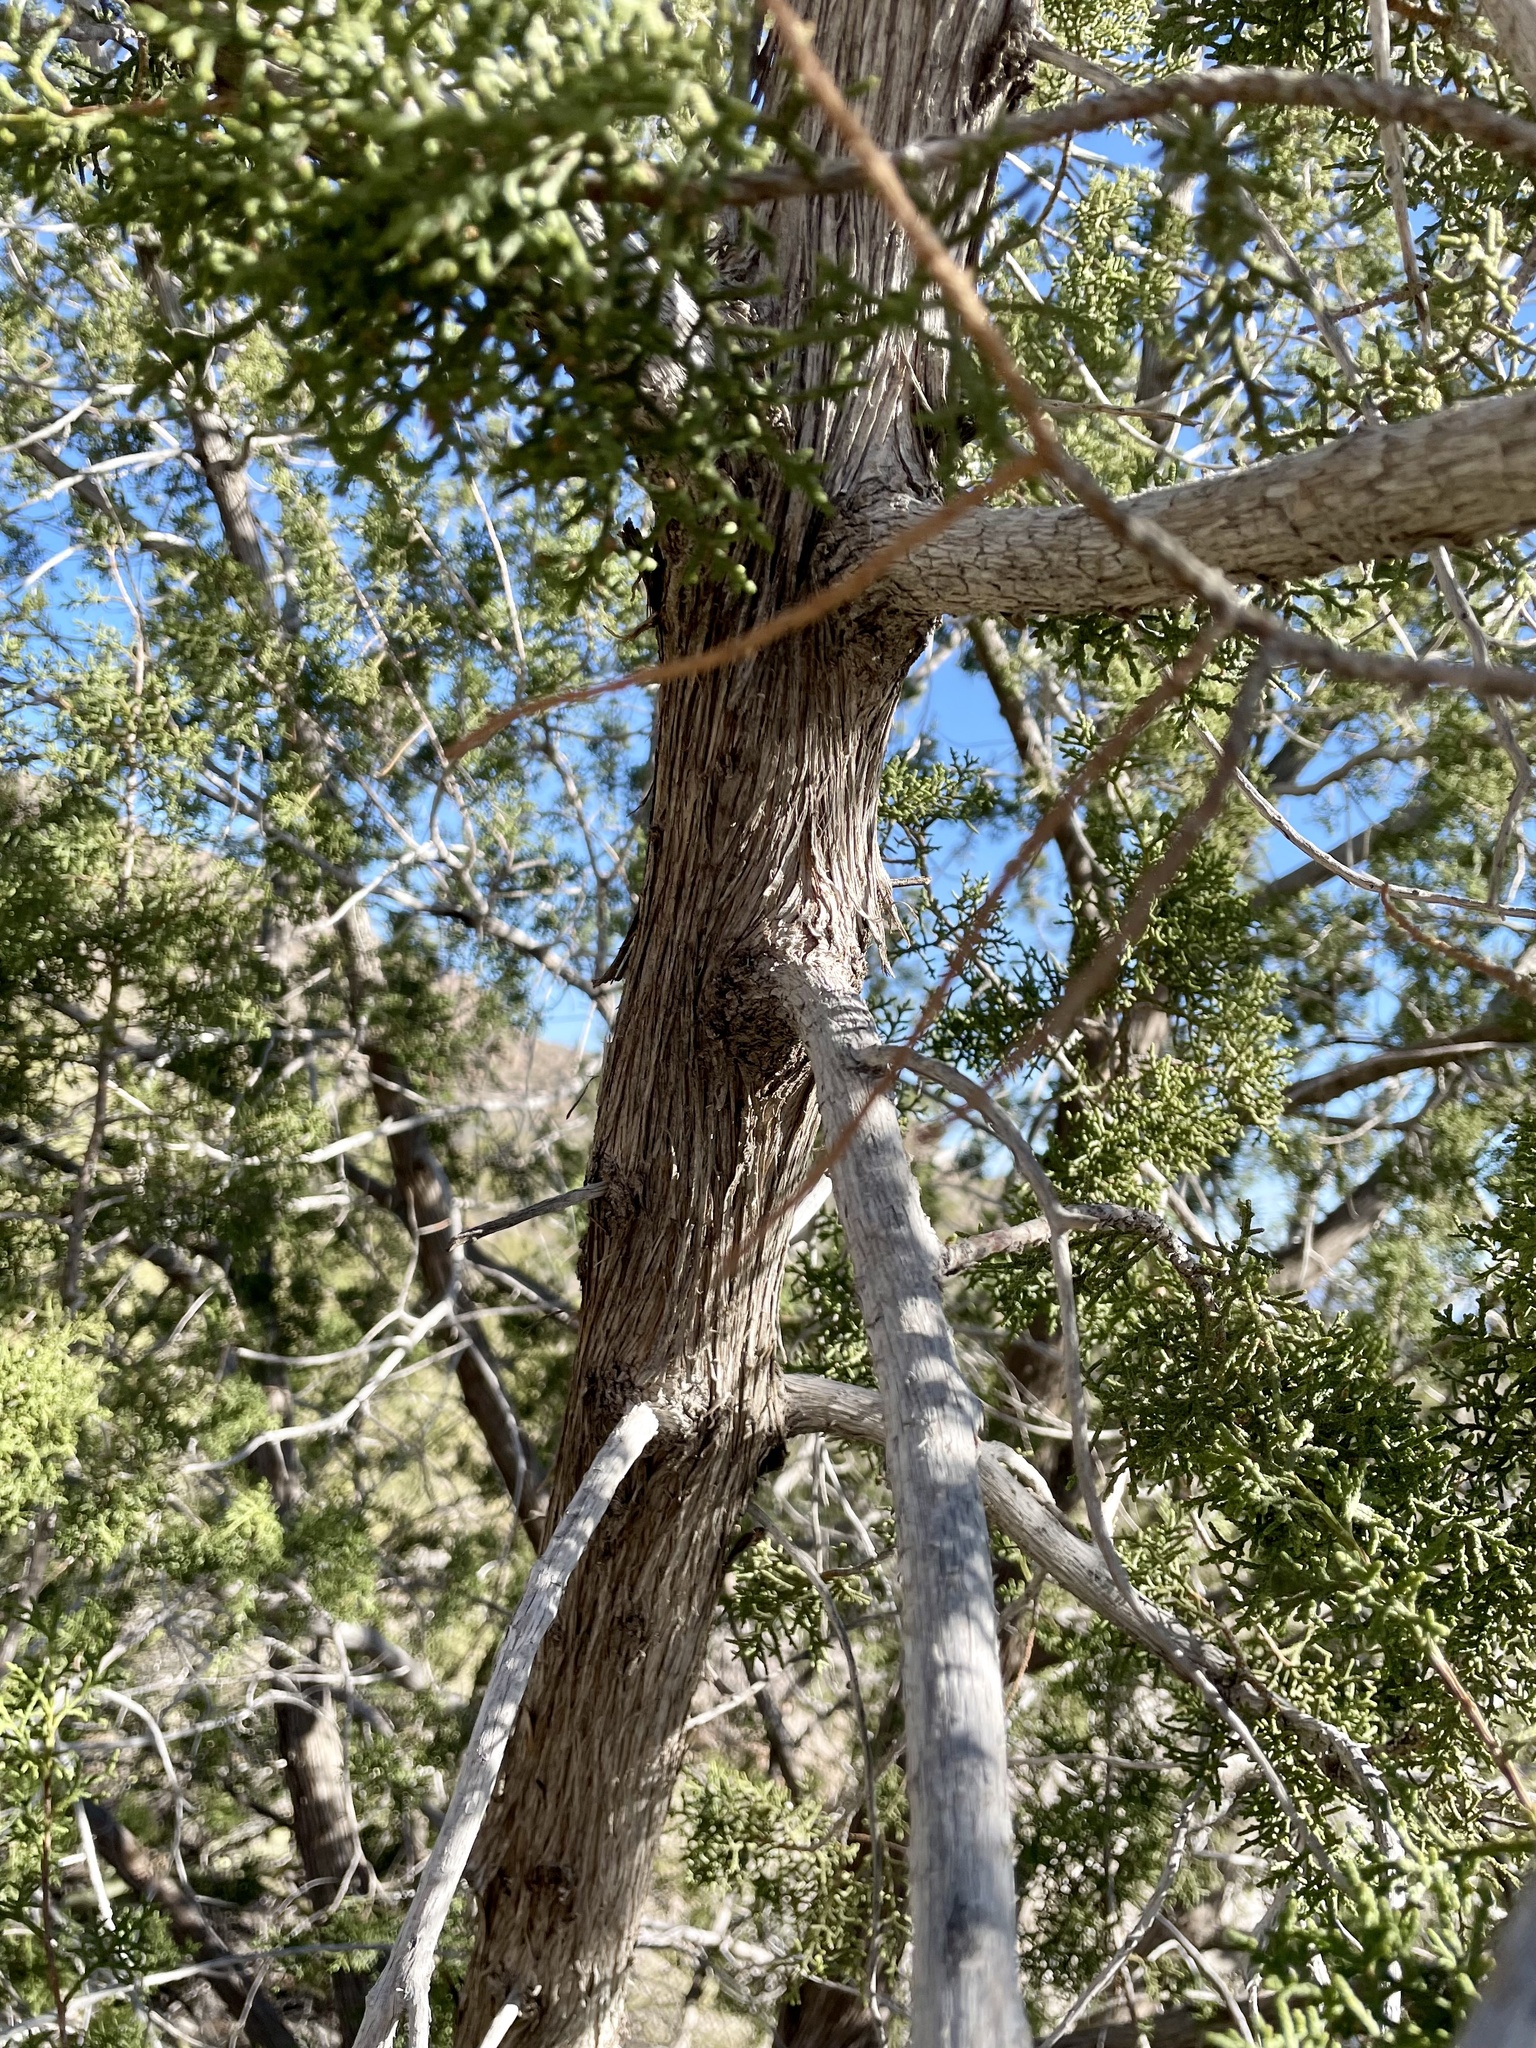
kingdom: Plantae
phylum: Tracheophyta
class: Pinopsida
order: Pinales
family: Cupressaceae
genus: Juniperus
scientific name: Juniperus arizonica
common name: Arizona juniper
